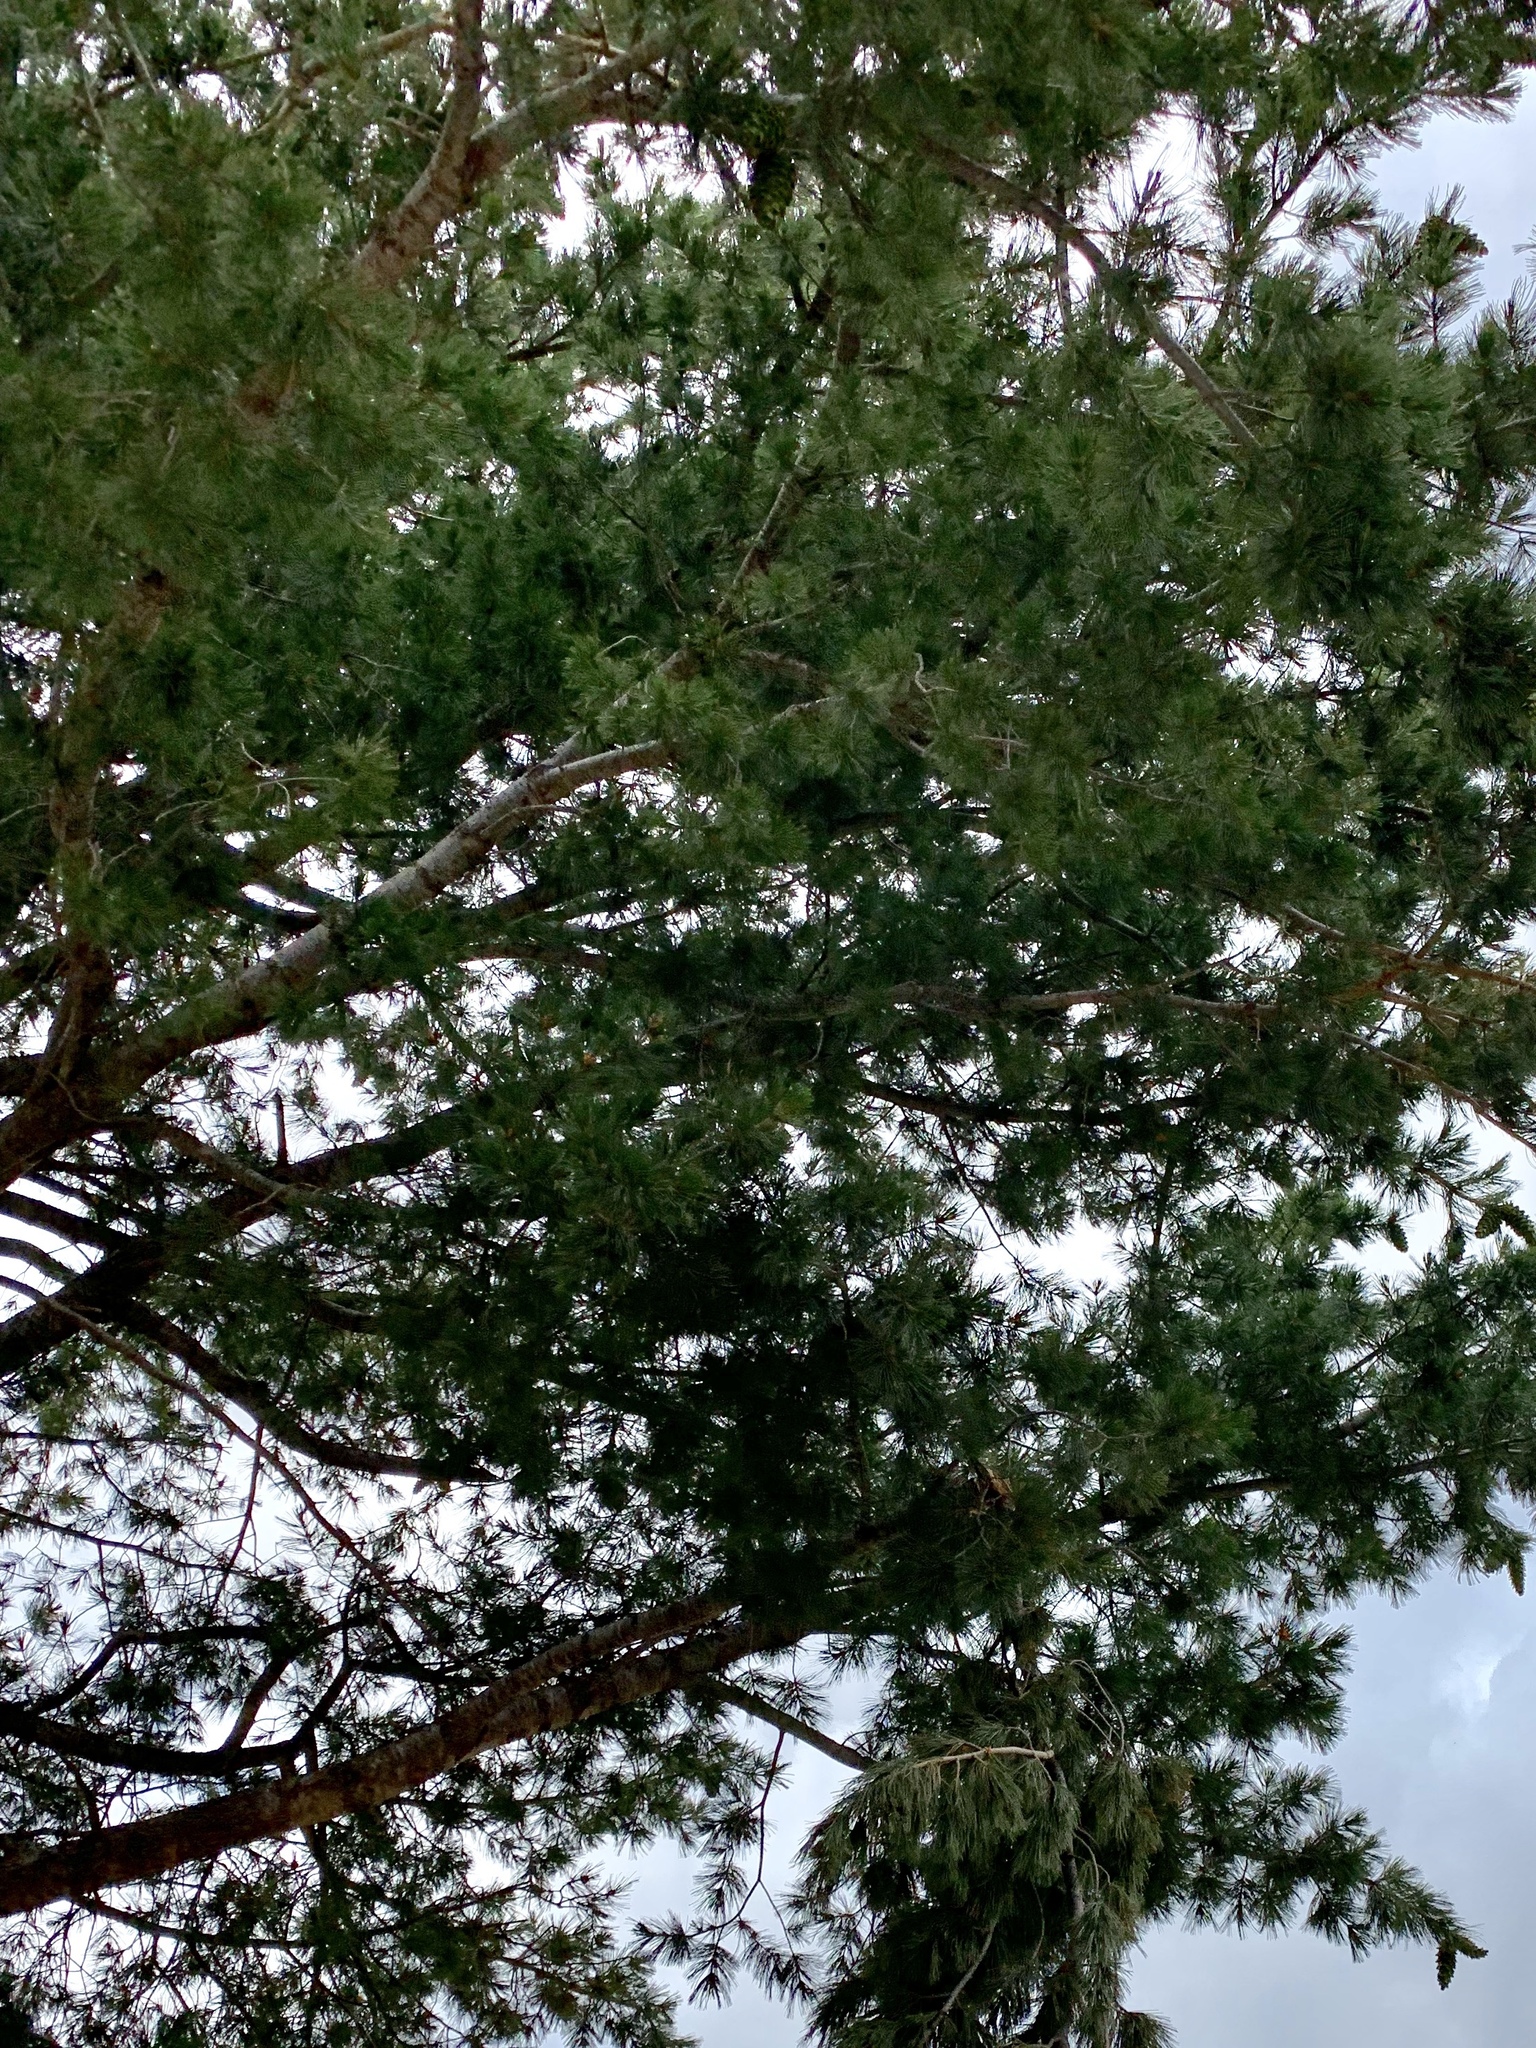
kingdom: Plantae
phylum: Tracheophyta
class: Pinopsida
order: Pinales
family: Pinaceae
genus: Pinus
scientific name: Pinus strobiformis
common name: Southwestern white pine
